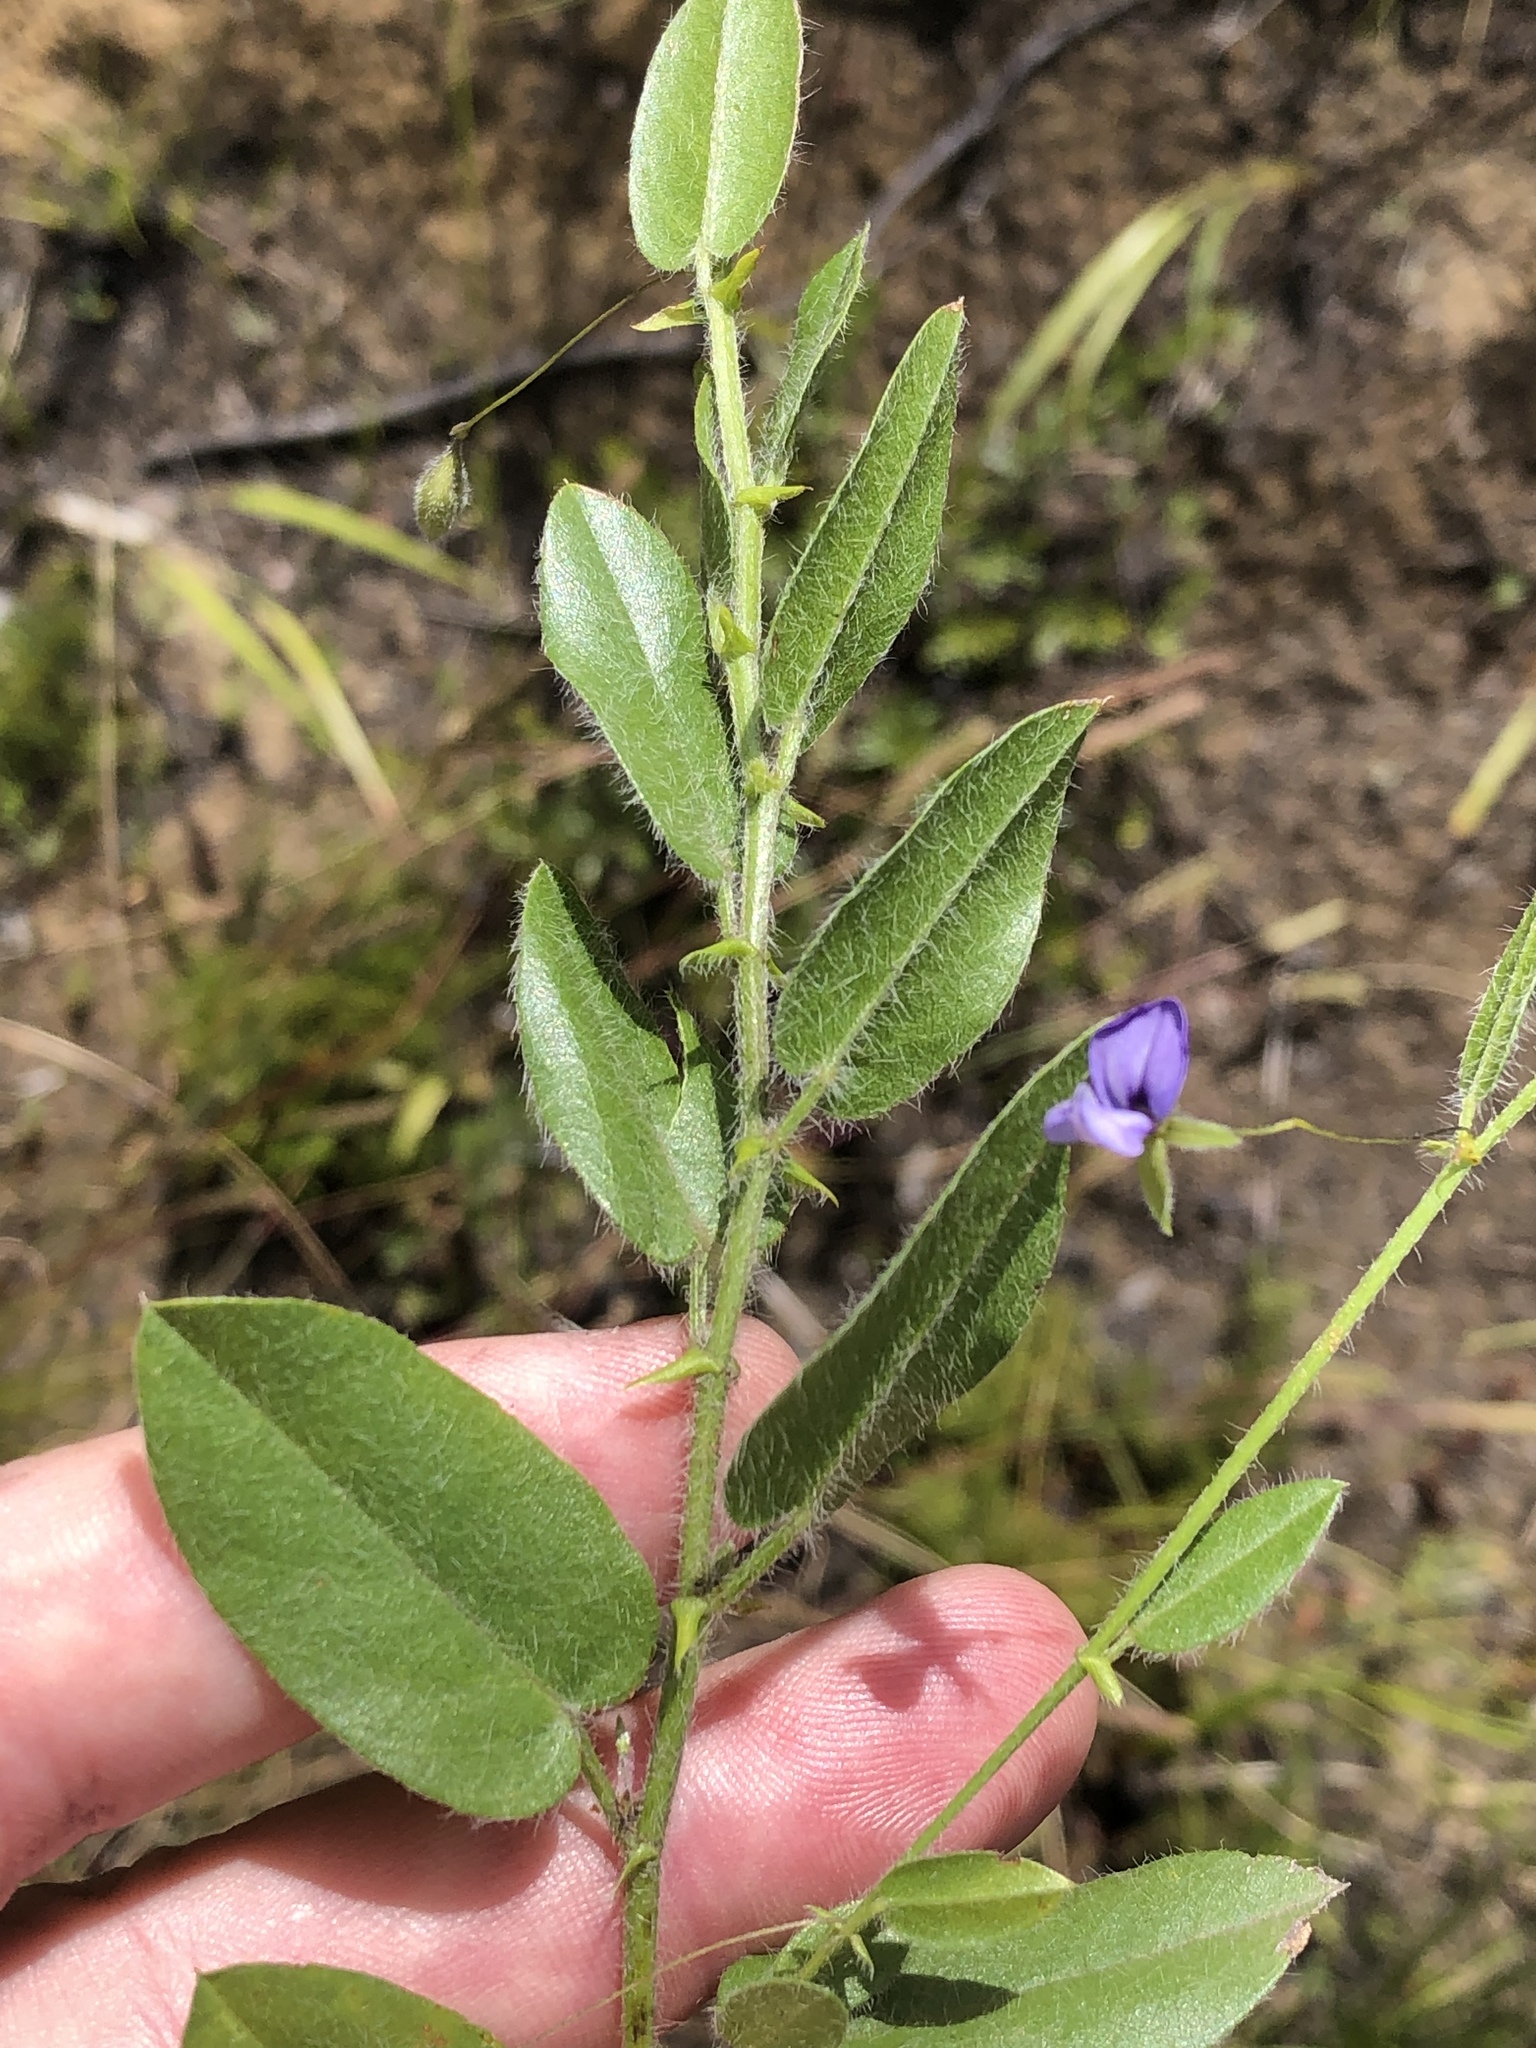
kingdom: Plantae
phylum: Tracheophyta
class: Magnoliopsida
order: Fabales
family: Fabaceae
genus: Psoralea
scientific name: Psoralea plauta
